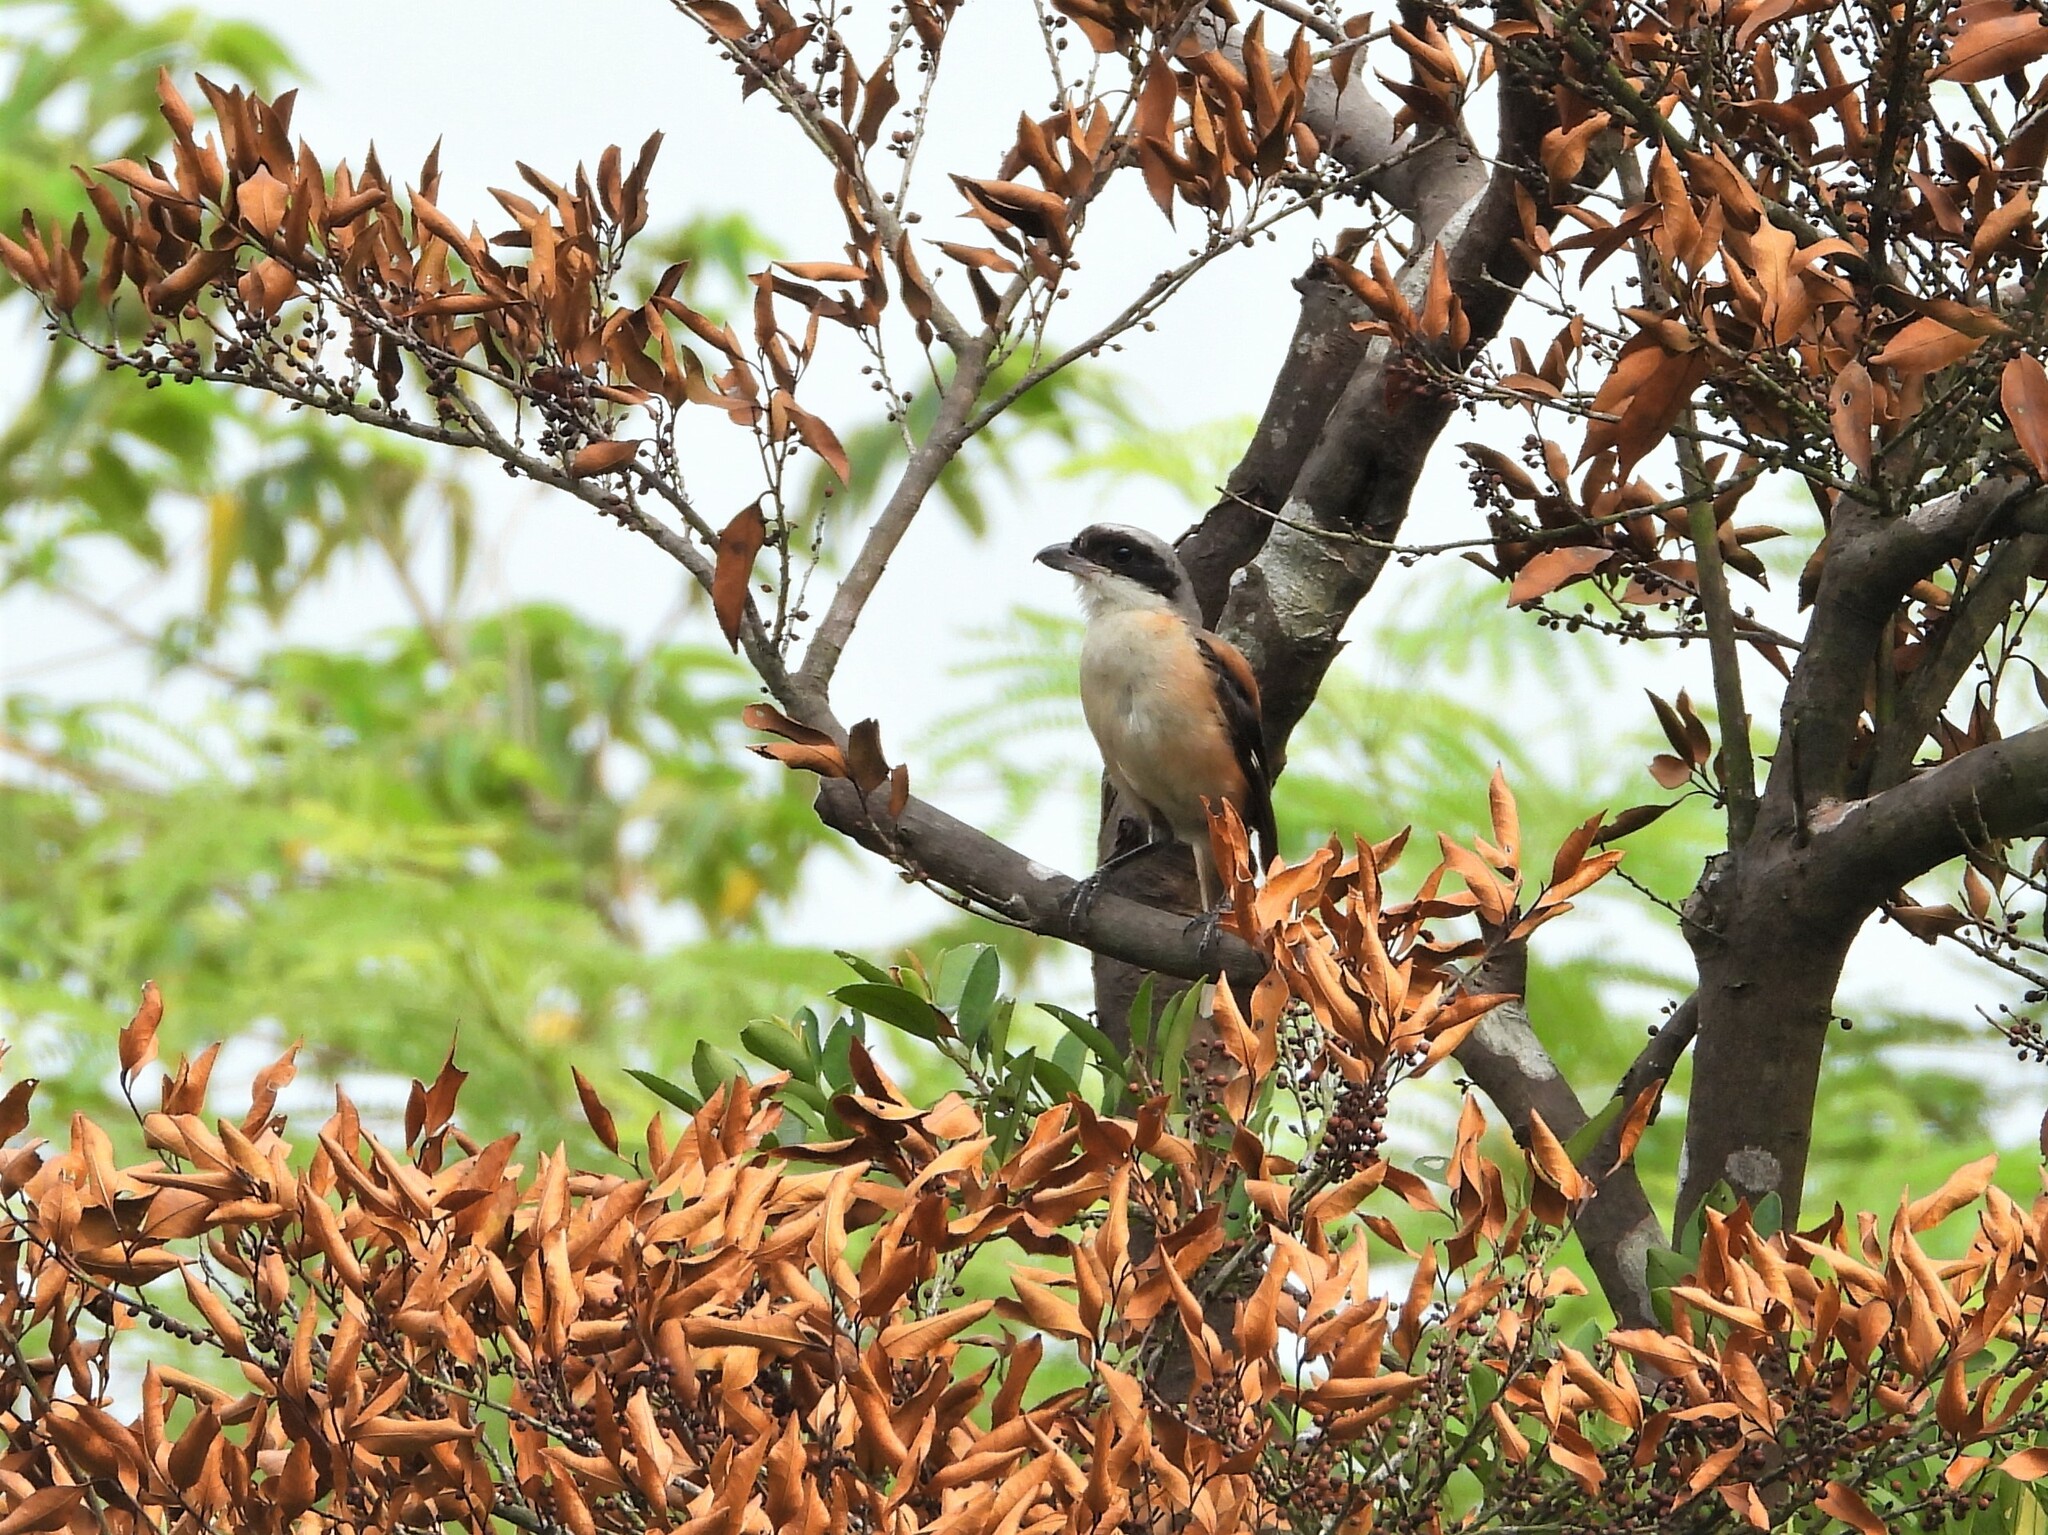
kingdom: Animalia
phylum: Chordata
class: Aves
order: Passeriformes
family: Laniidae
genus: Lanius
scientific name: Lanius schach
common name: Long-tailed shrike
